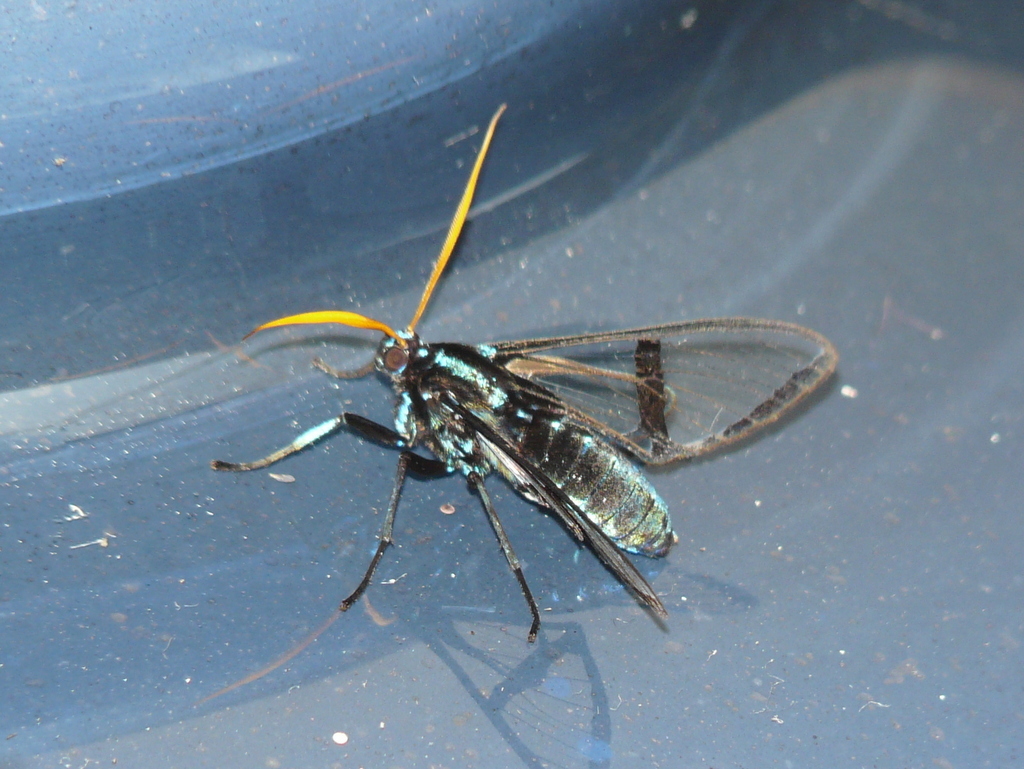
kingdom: Animalia
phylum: Arthropoda
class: Insecta
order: Lepidoptera
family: Erebidae
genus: Nyridela
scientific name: Nyridela chalciope
